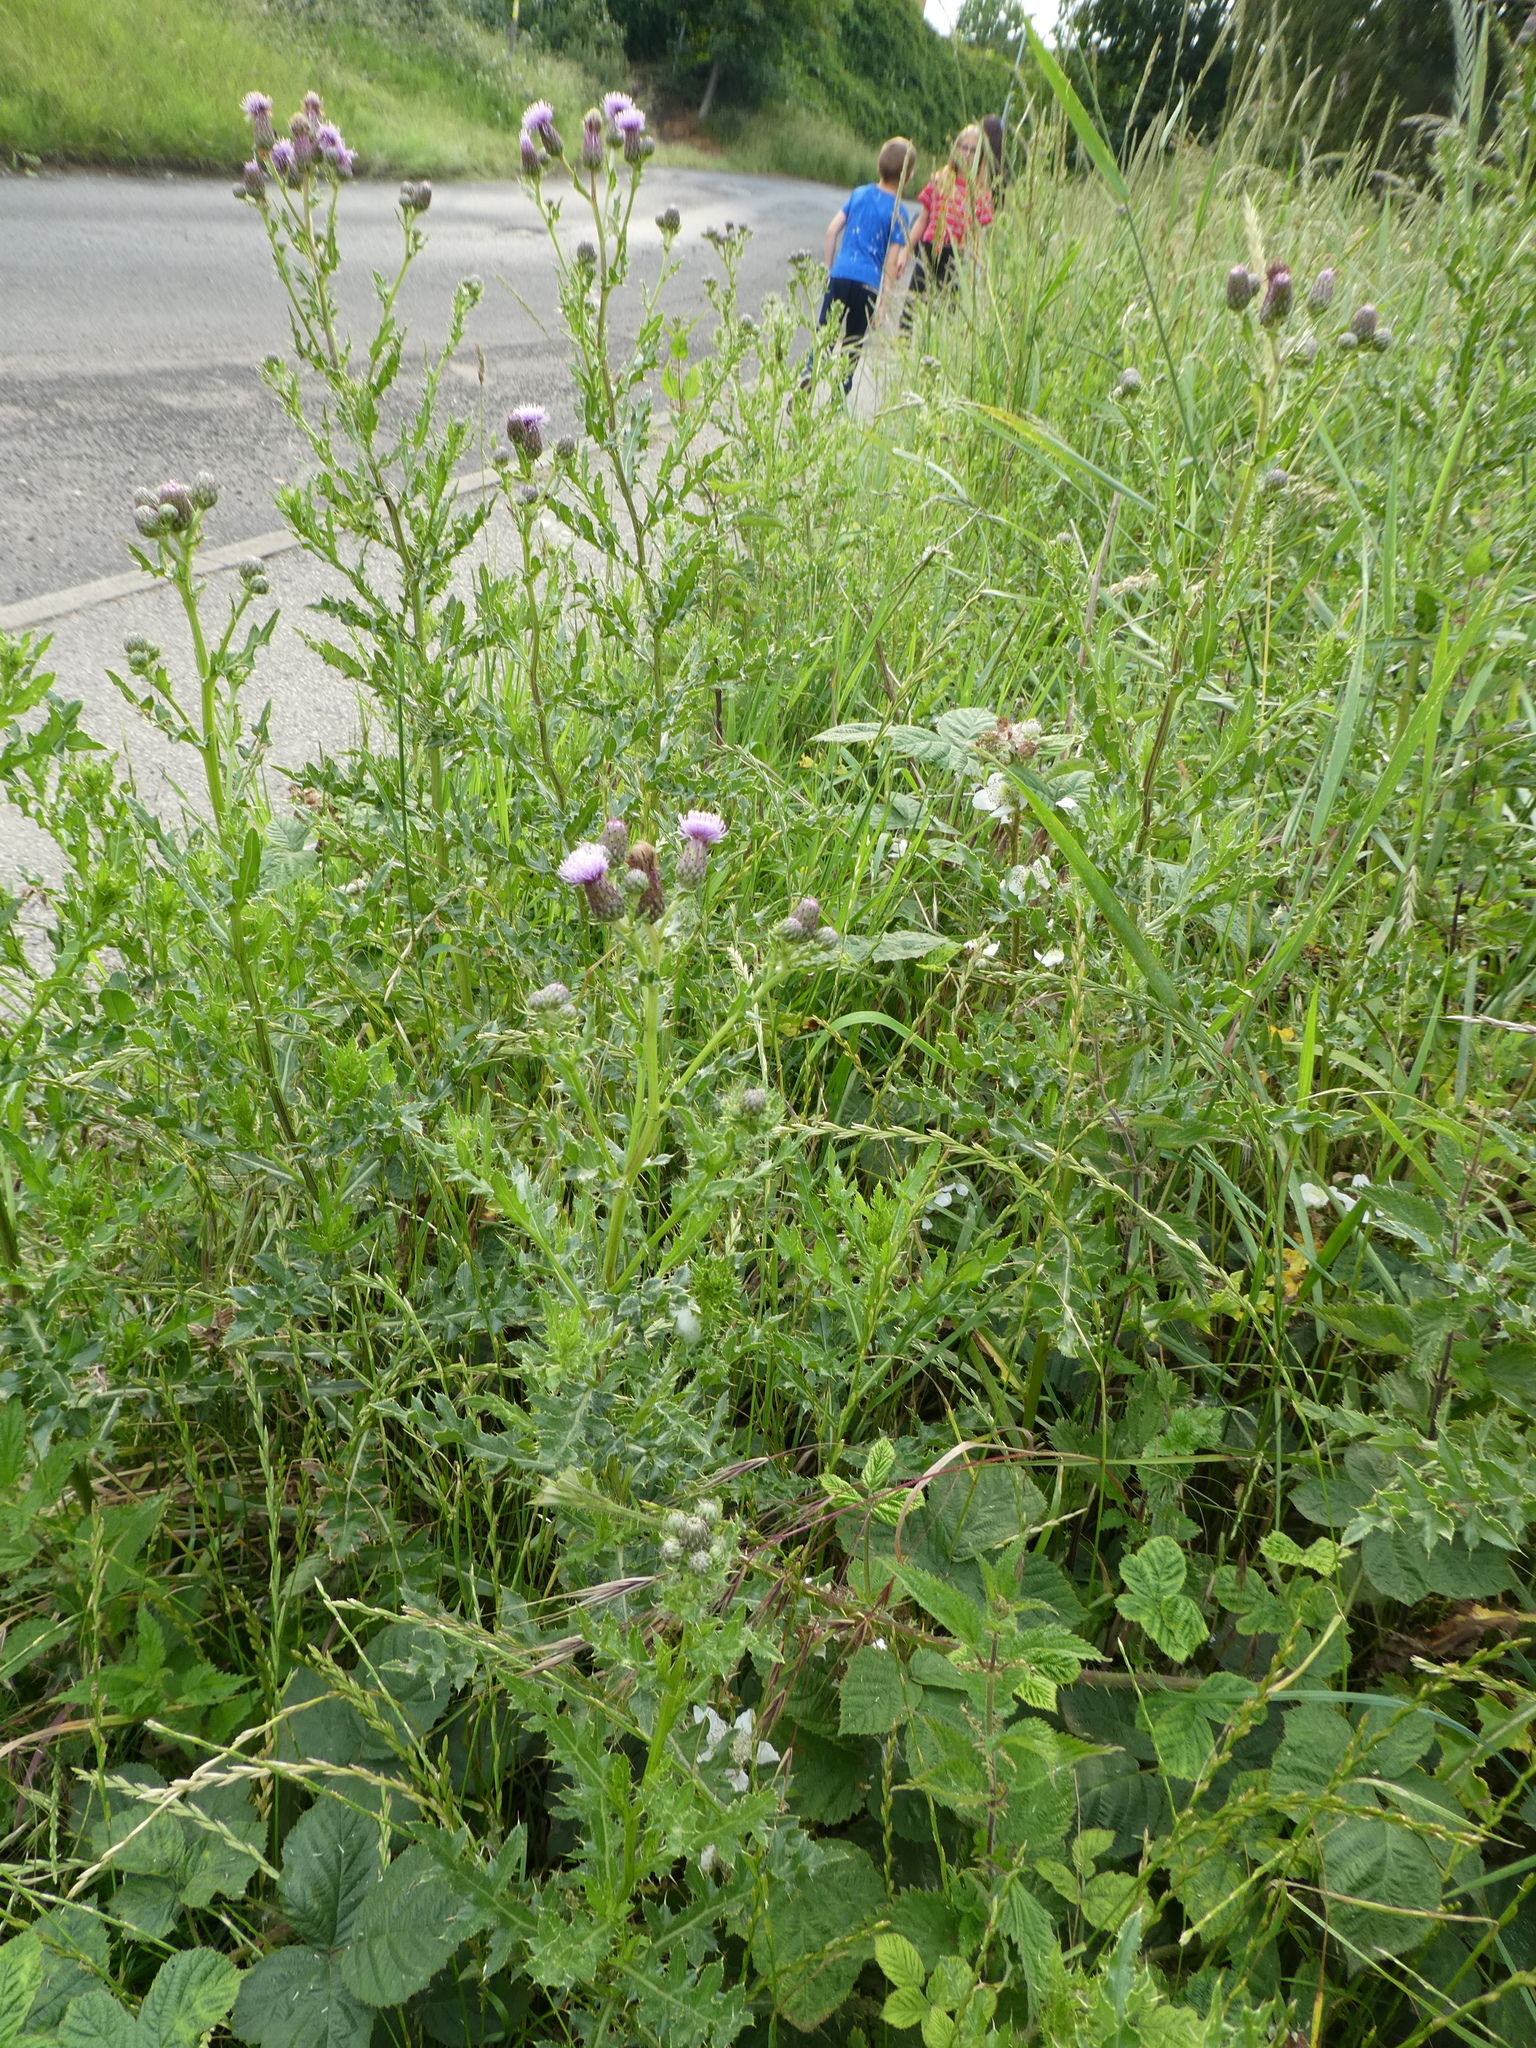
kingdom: Plantae
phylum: Tracheophyta
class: Magnoliopsida
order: Asterales
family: Asteraceae
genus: Cirsium
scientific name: Cirsium arvense
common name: Creeping thistle
